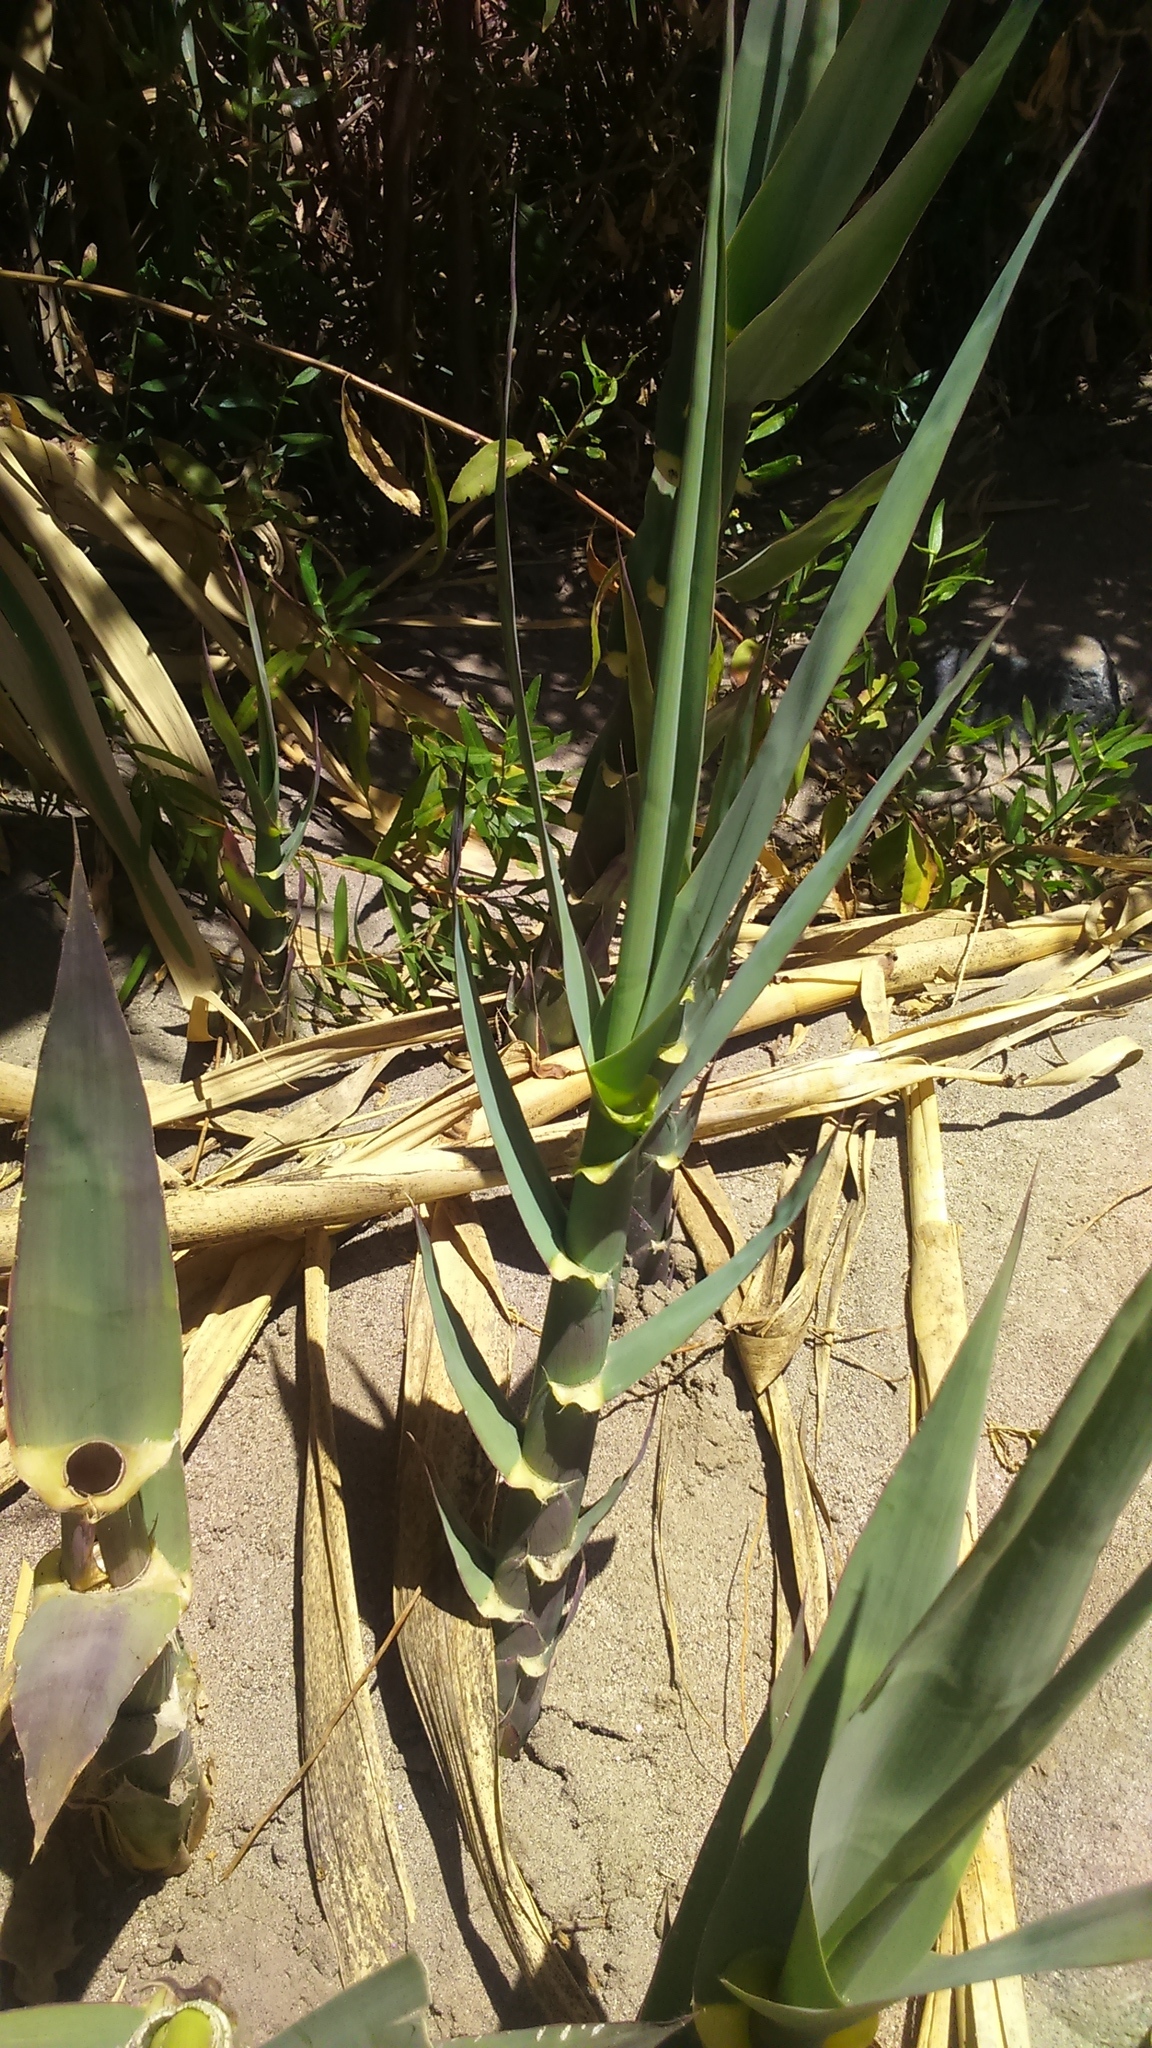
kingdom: Plantae
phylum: Tracheophyta
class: Liliopsida
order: Poales
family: Poaceae
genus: Arundo
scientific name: Arundo donax
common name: Giant reed
